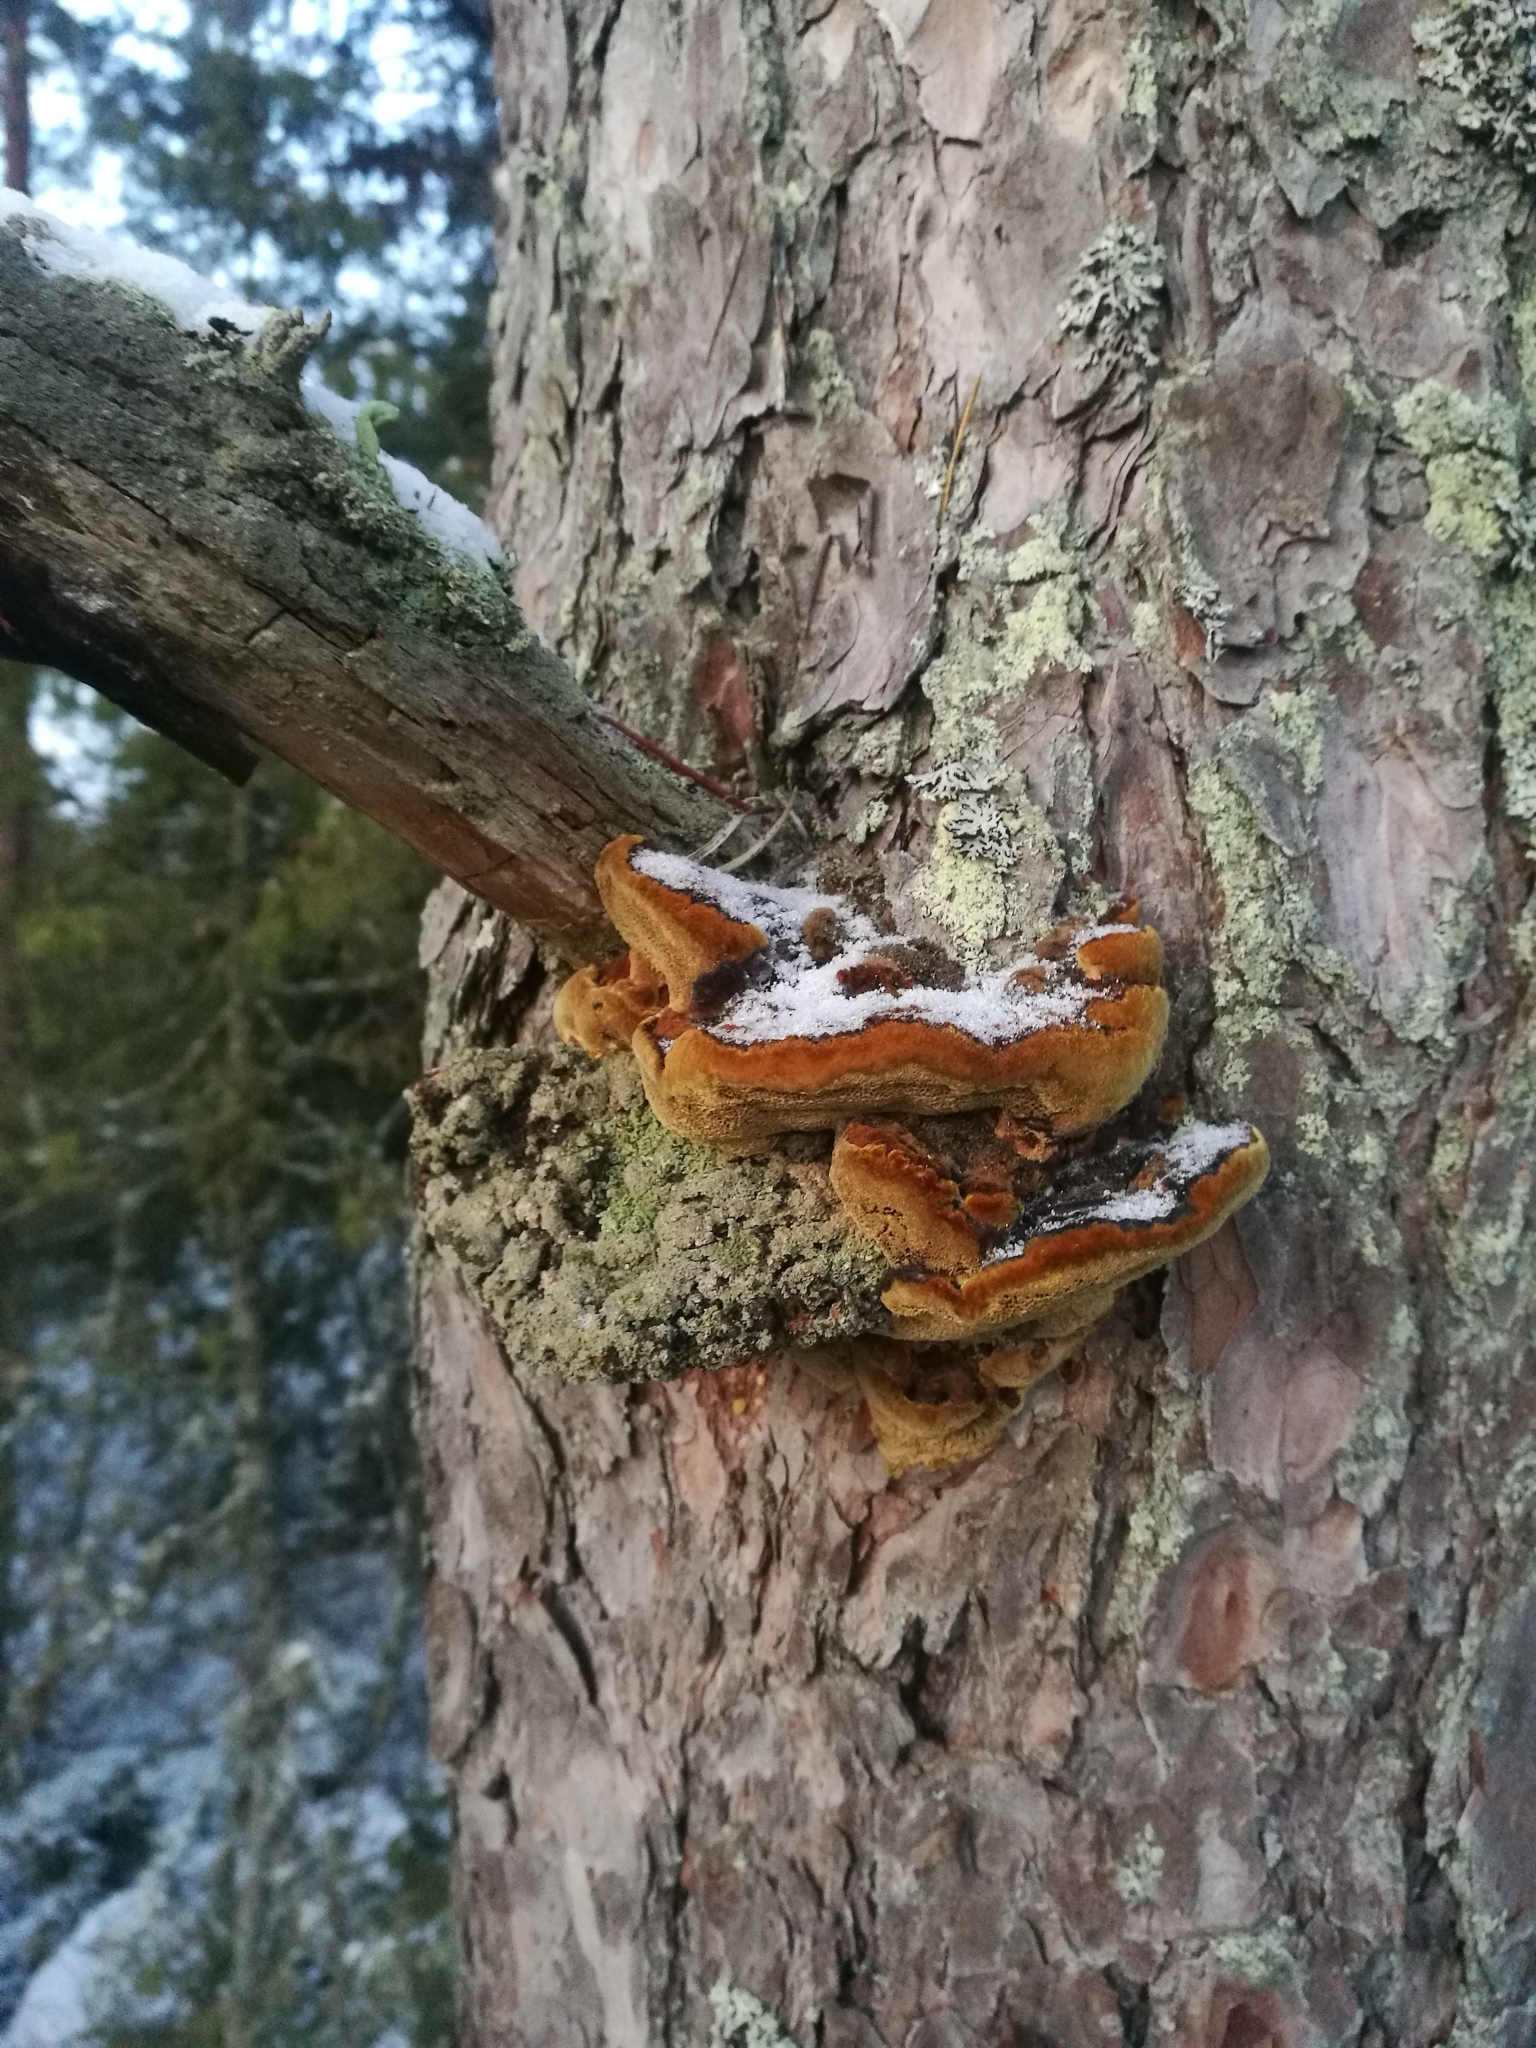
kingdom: Fungi
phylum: Basidiomycota
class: Agaricomycetes
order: Hymenochaetales
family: Hymenochaetaceae
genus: Porodaedalea
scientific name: Porodaedalea pini
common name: Pine bracket
